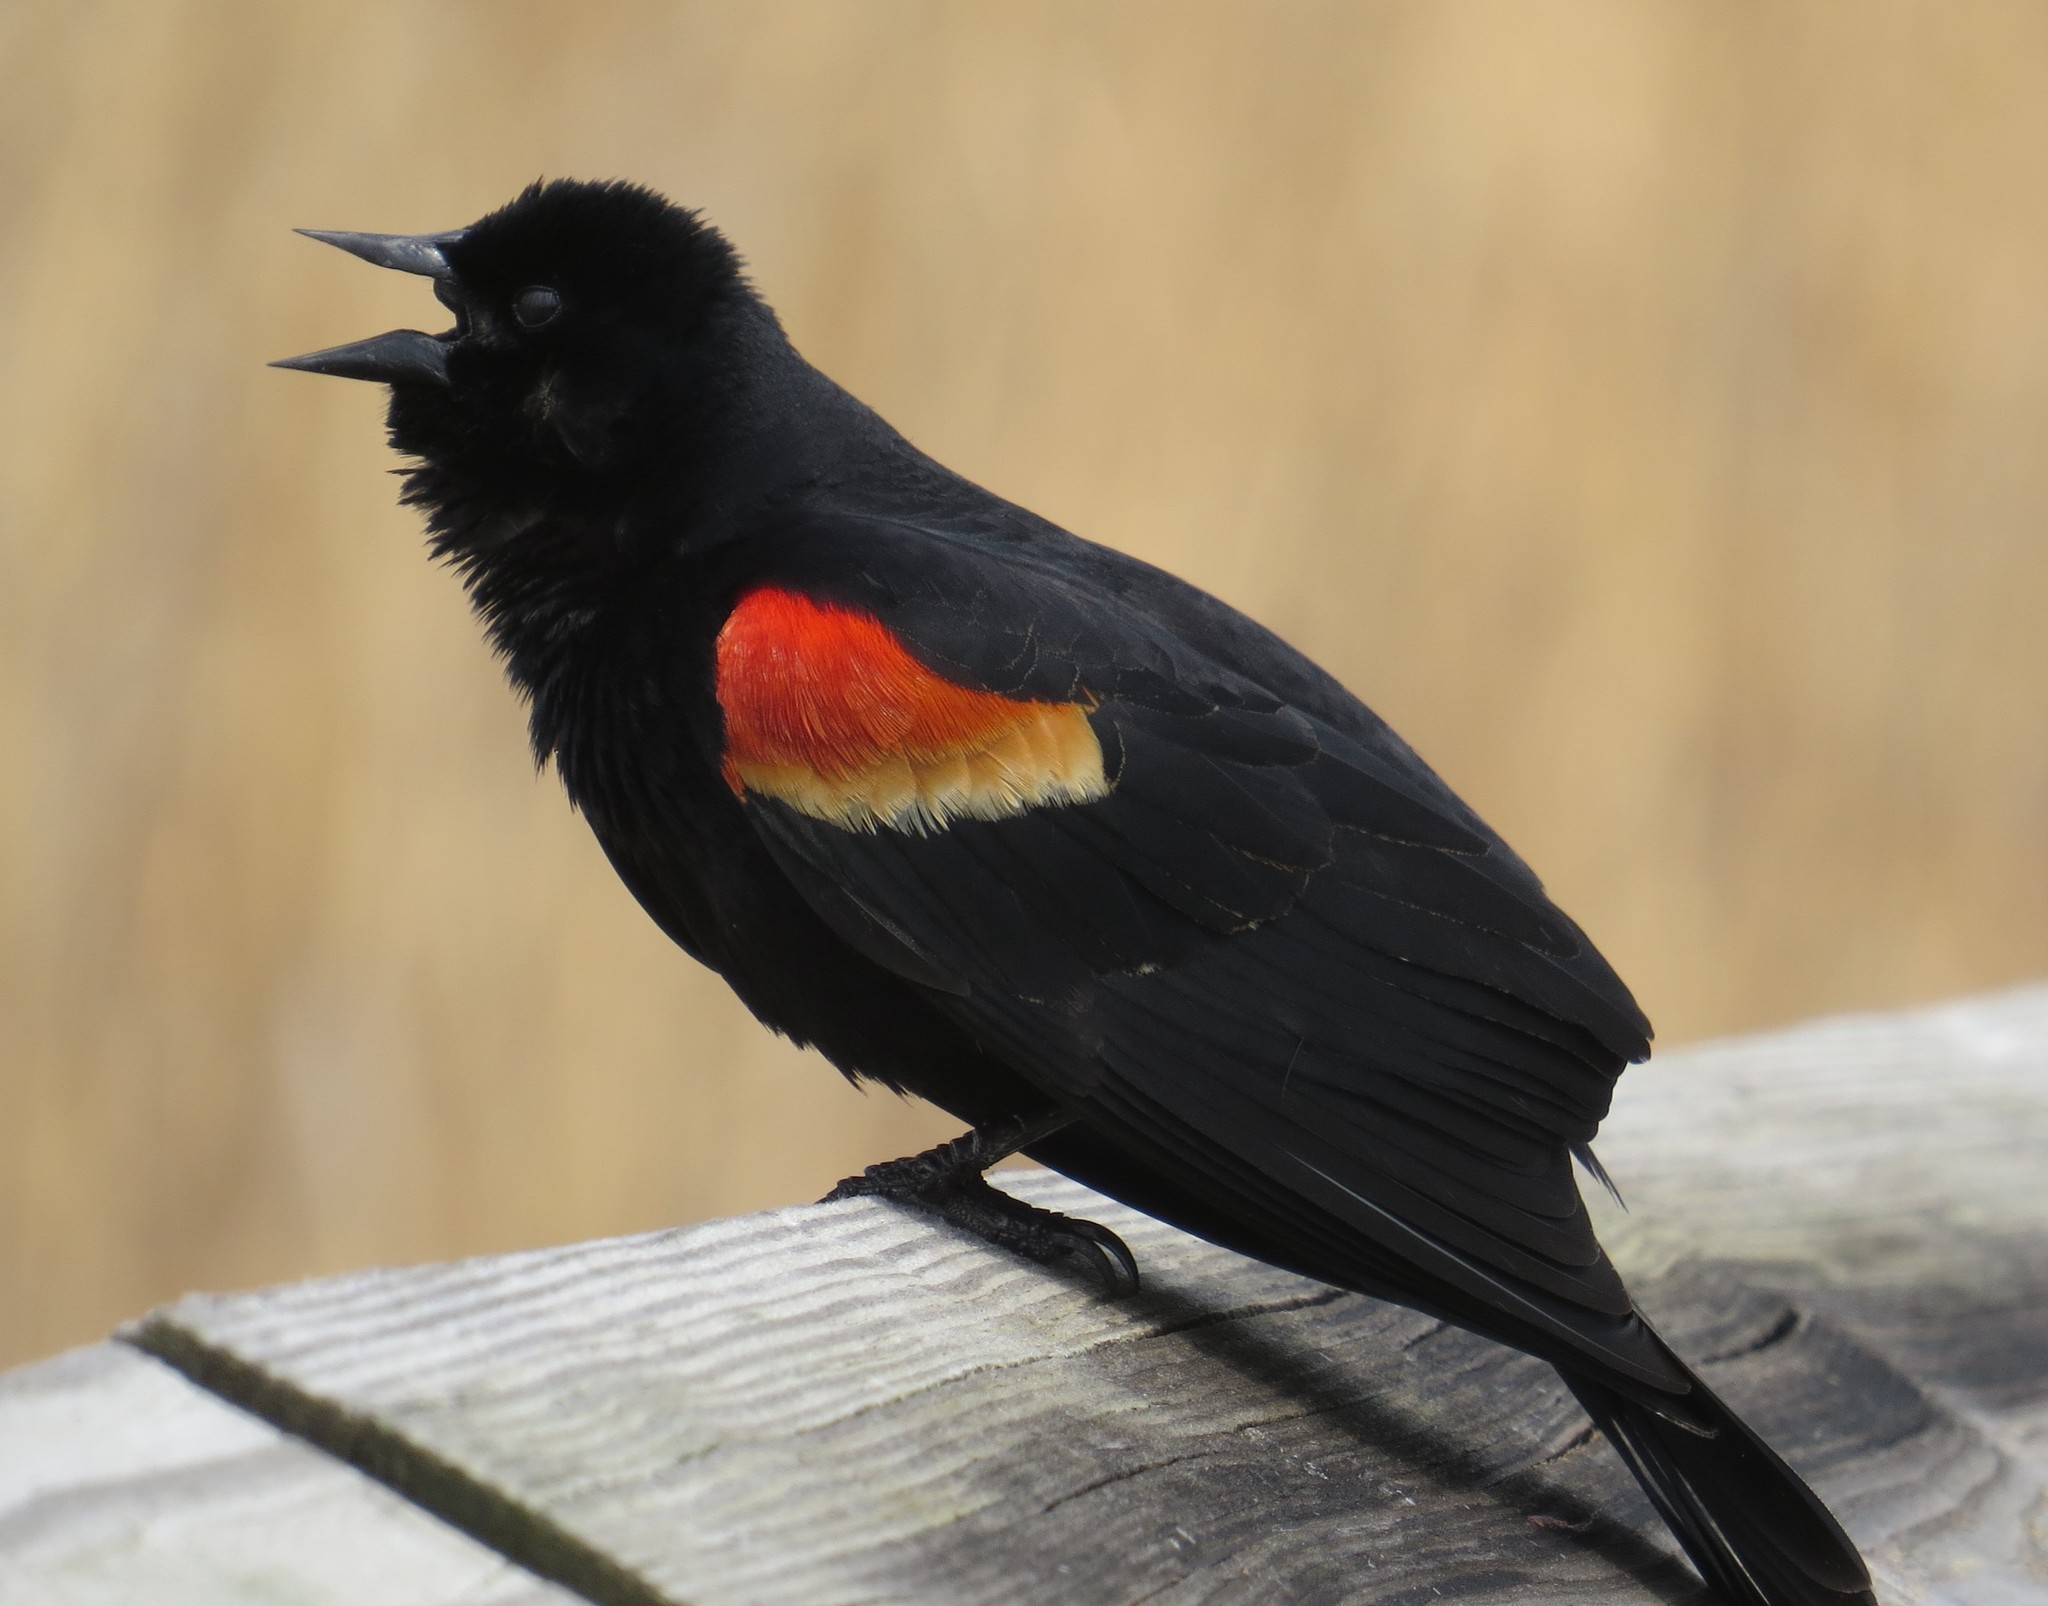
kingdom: Animalia
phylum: Chordata
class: Aves
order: Passeriformes
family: Icteridae
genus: Agelaius
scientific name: Agelaius phoeniceus
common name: Red-winged blackbird
